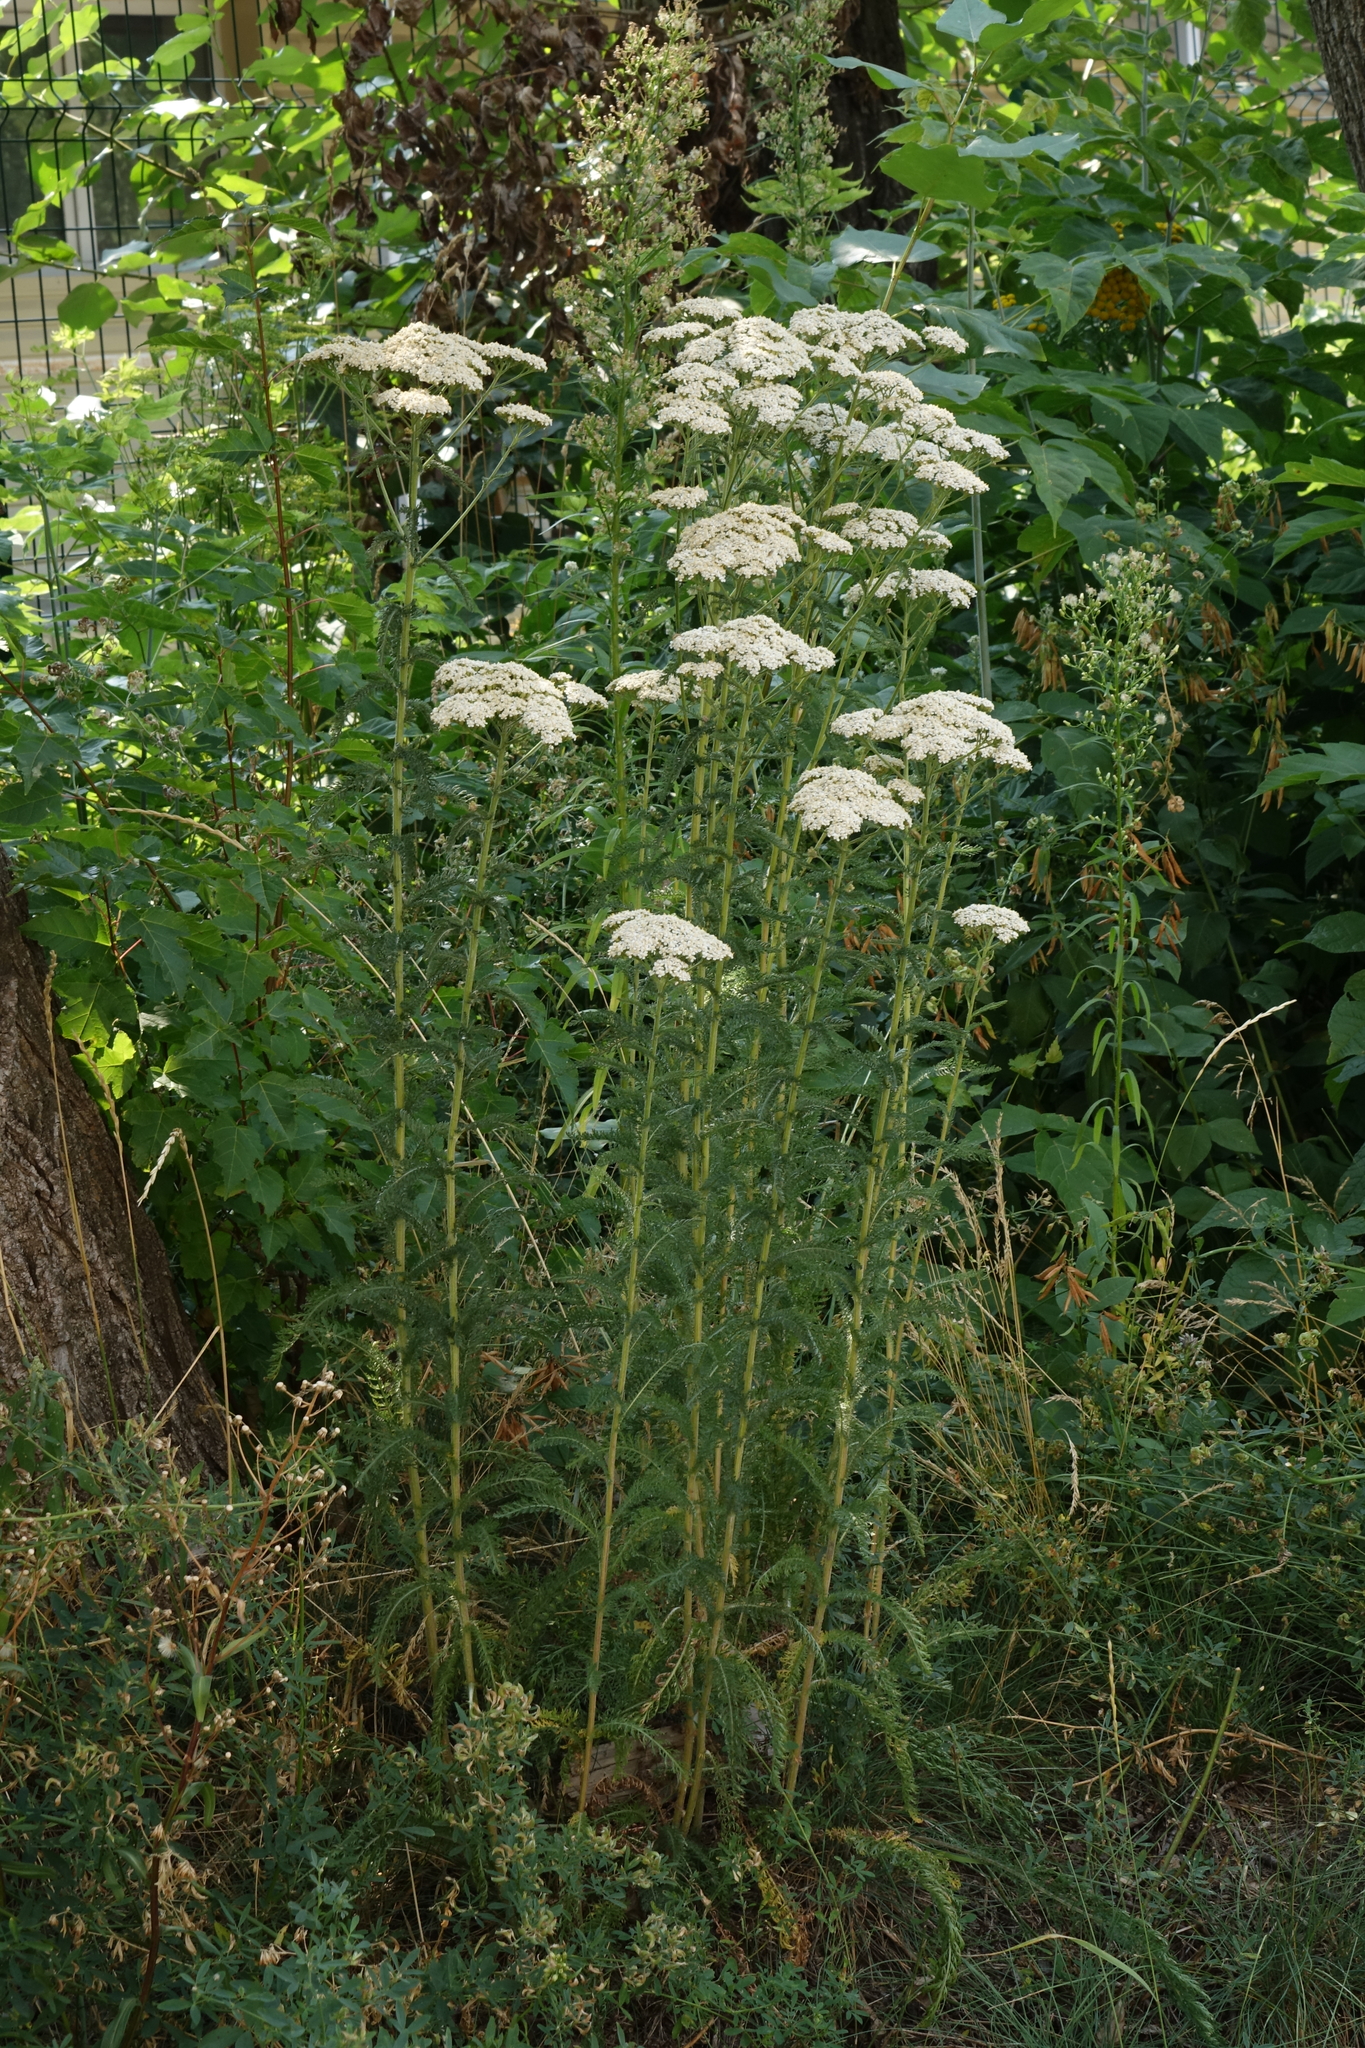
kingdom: Plantae
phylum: Tracheophyta
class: Magnoliopsida
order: Asterales
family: Asteraceae
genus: Achillea
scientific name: Achillea millefolium
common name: Yarrow
